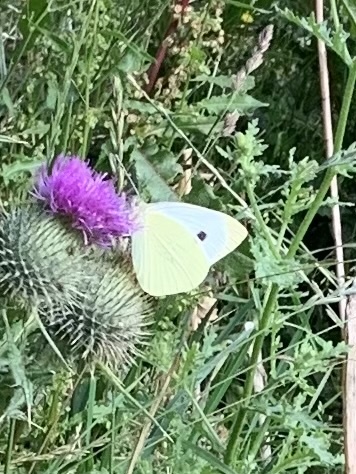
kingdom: Animalia
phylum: Arthropoda
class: Insecta
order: Lepidoptera
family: Pieridae
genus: Pieris
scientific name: Pieris brassicae
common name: Large white
